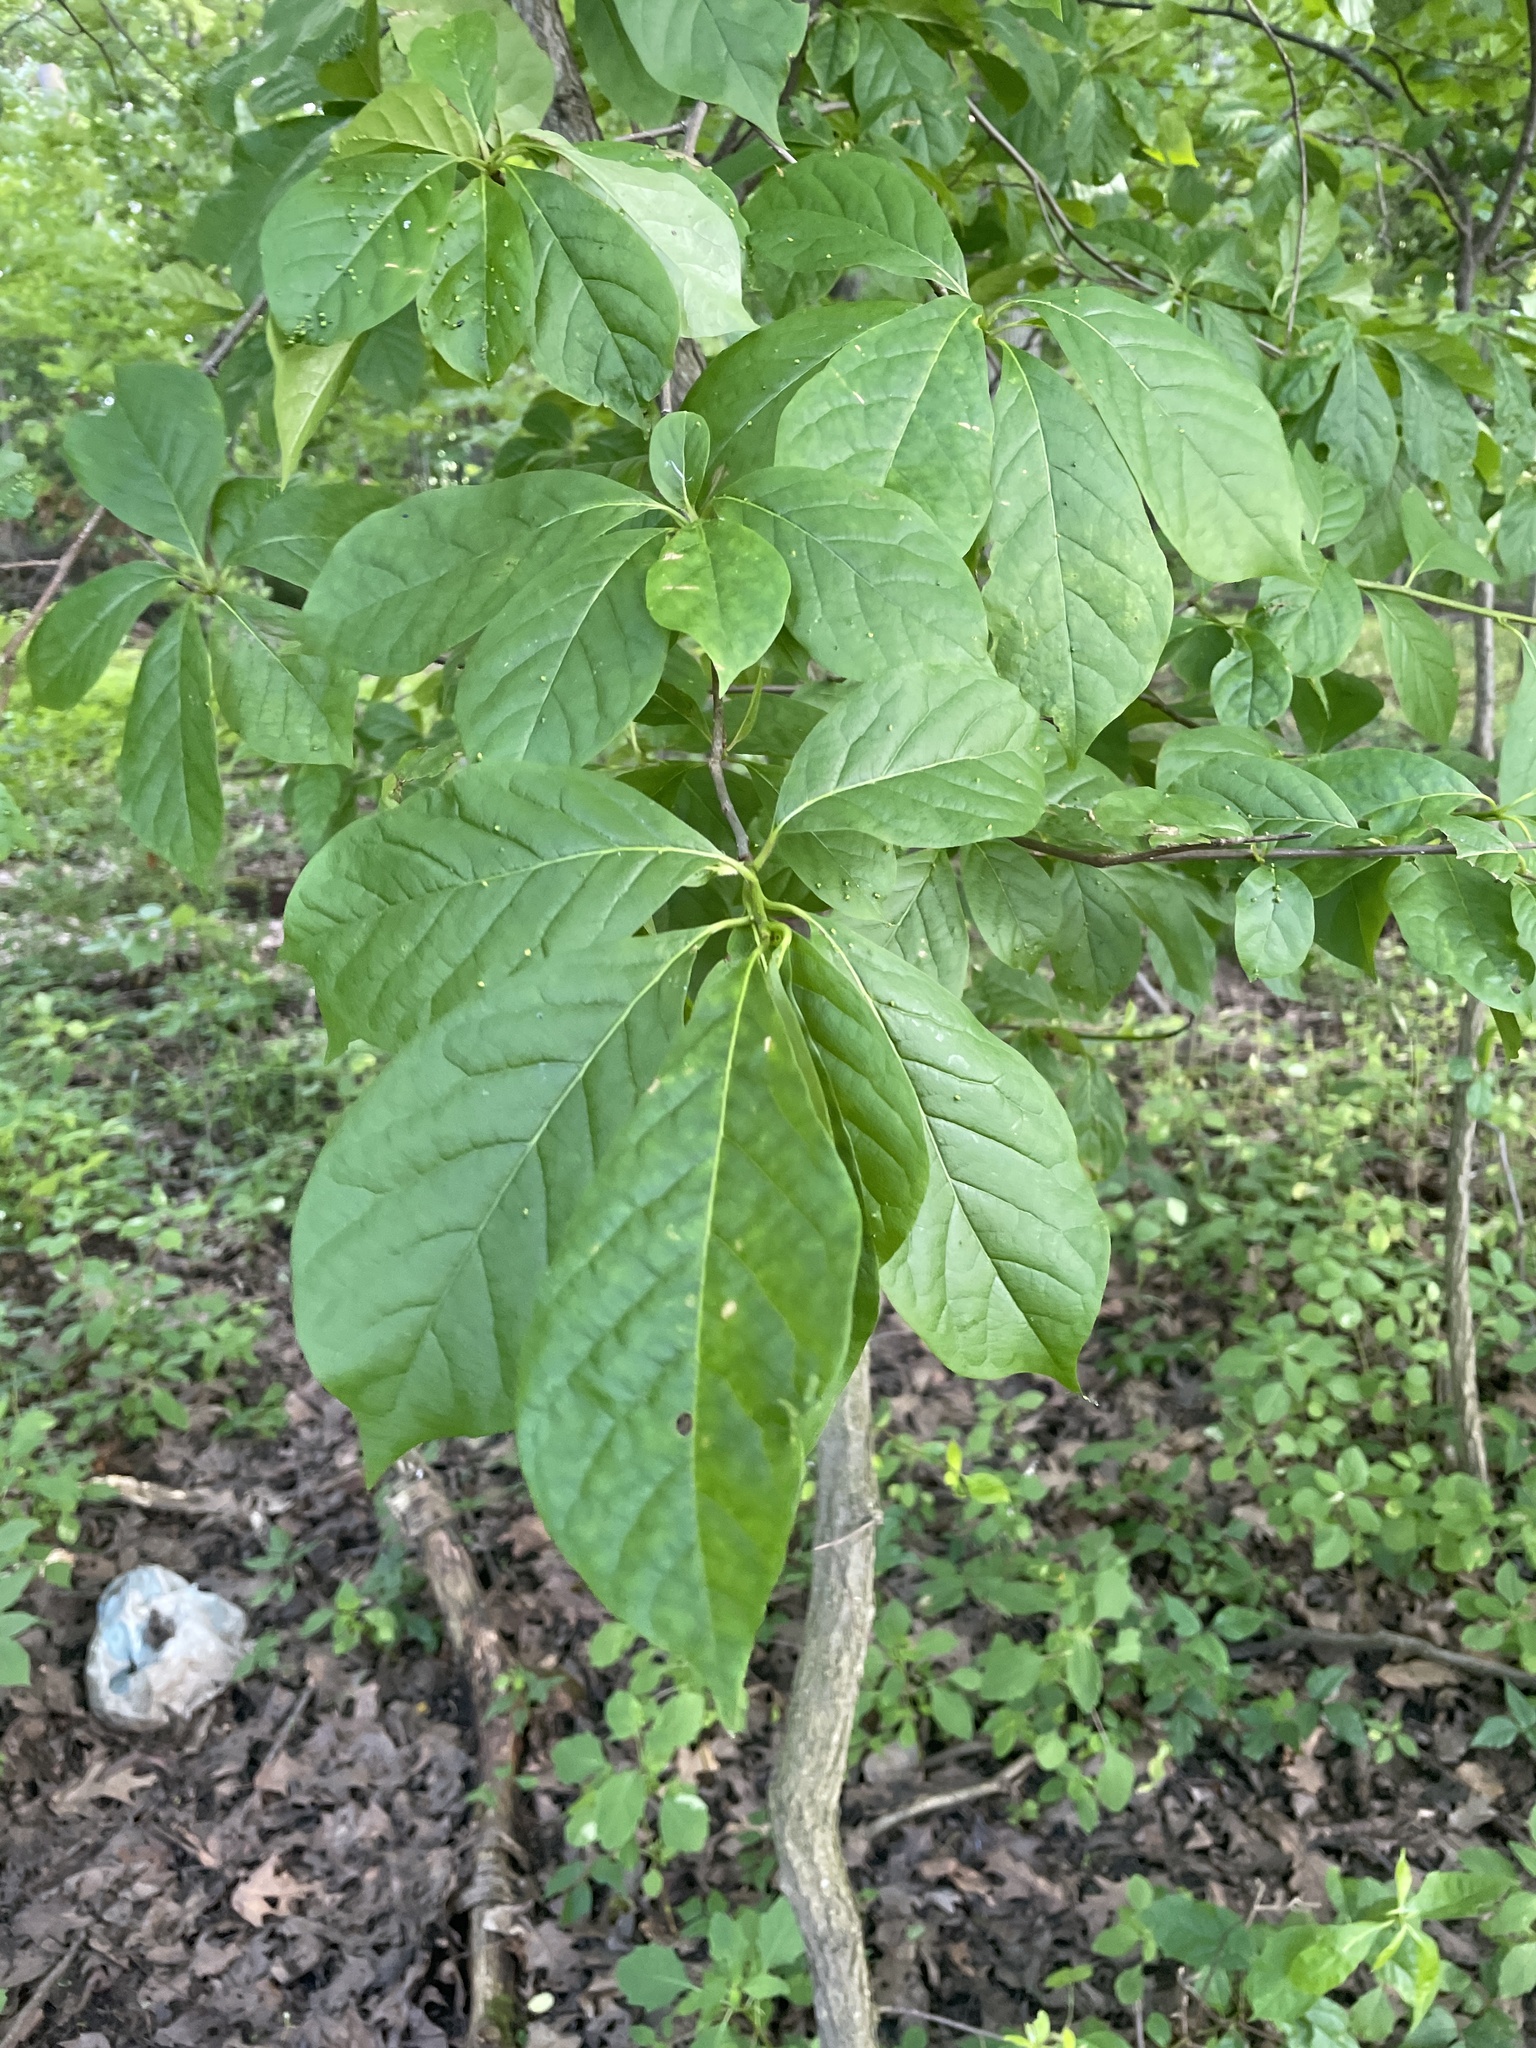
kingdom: Plantae
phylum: Tracheophyta
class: Magnoliopsida
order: Cornales
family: Nyssaceae
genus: Nyssa
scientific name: Nyssa sylvatica
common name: Black tupelo
